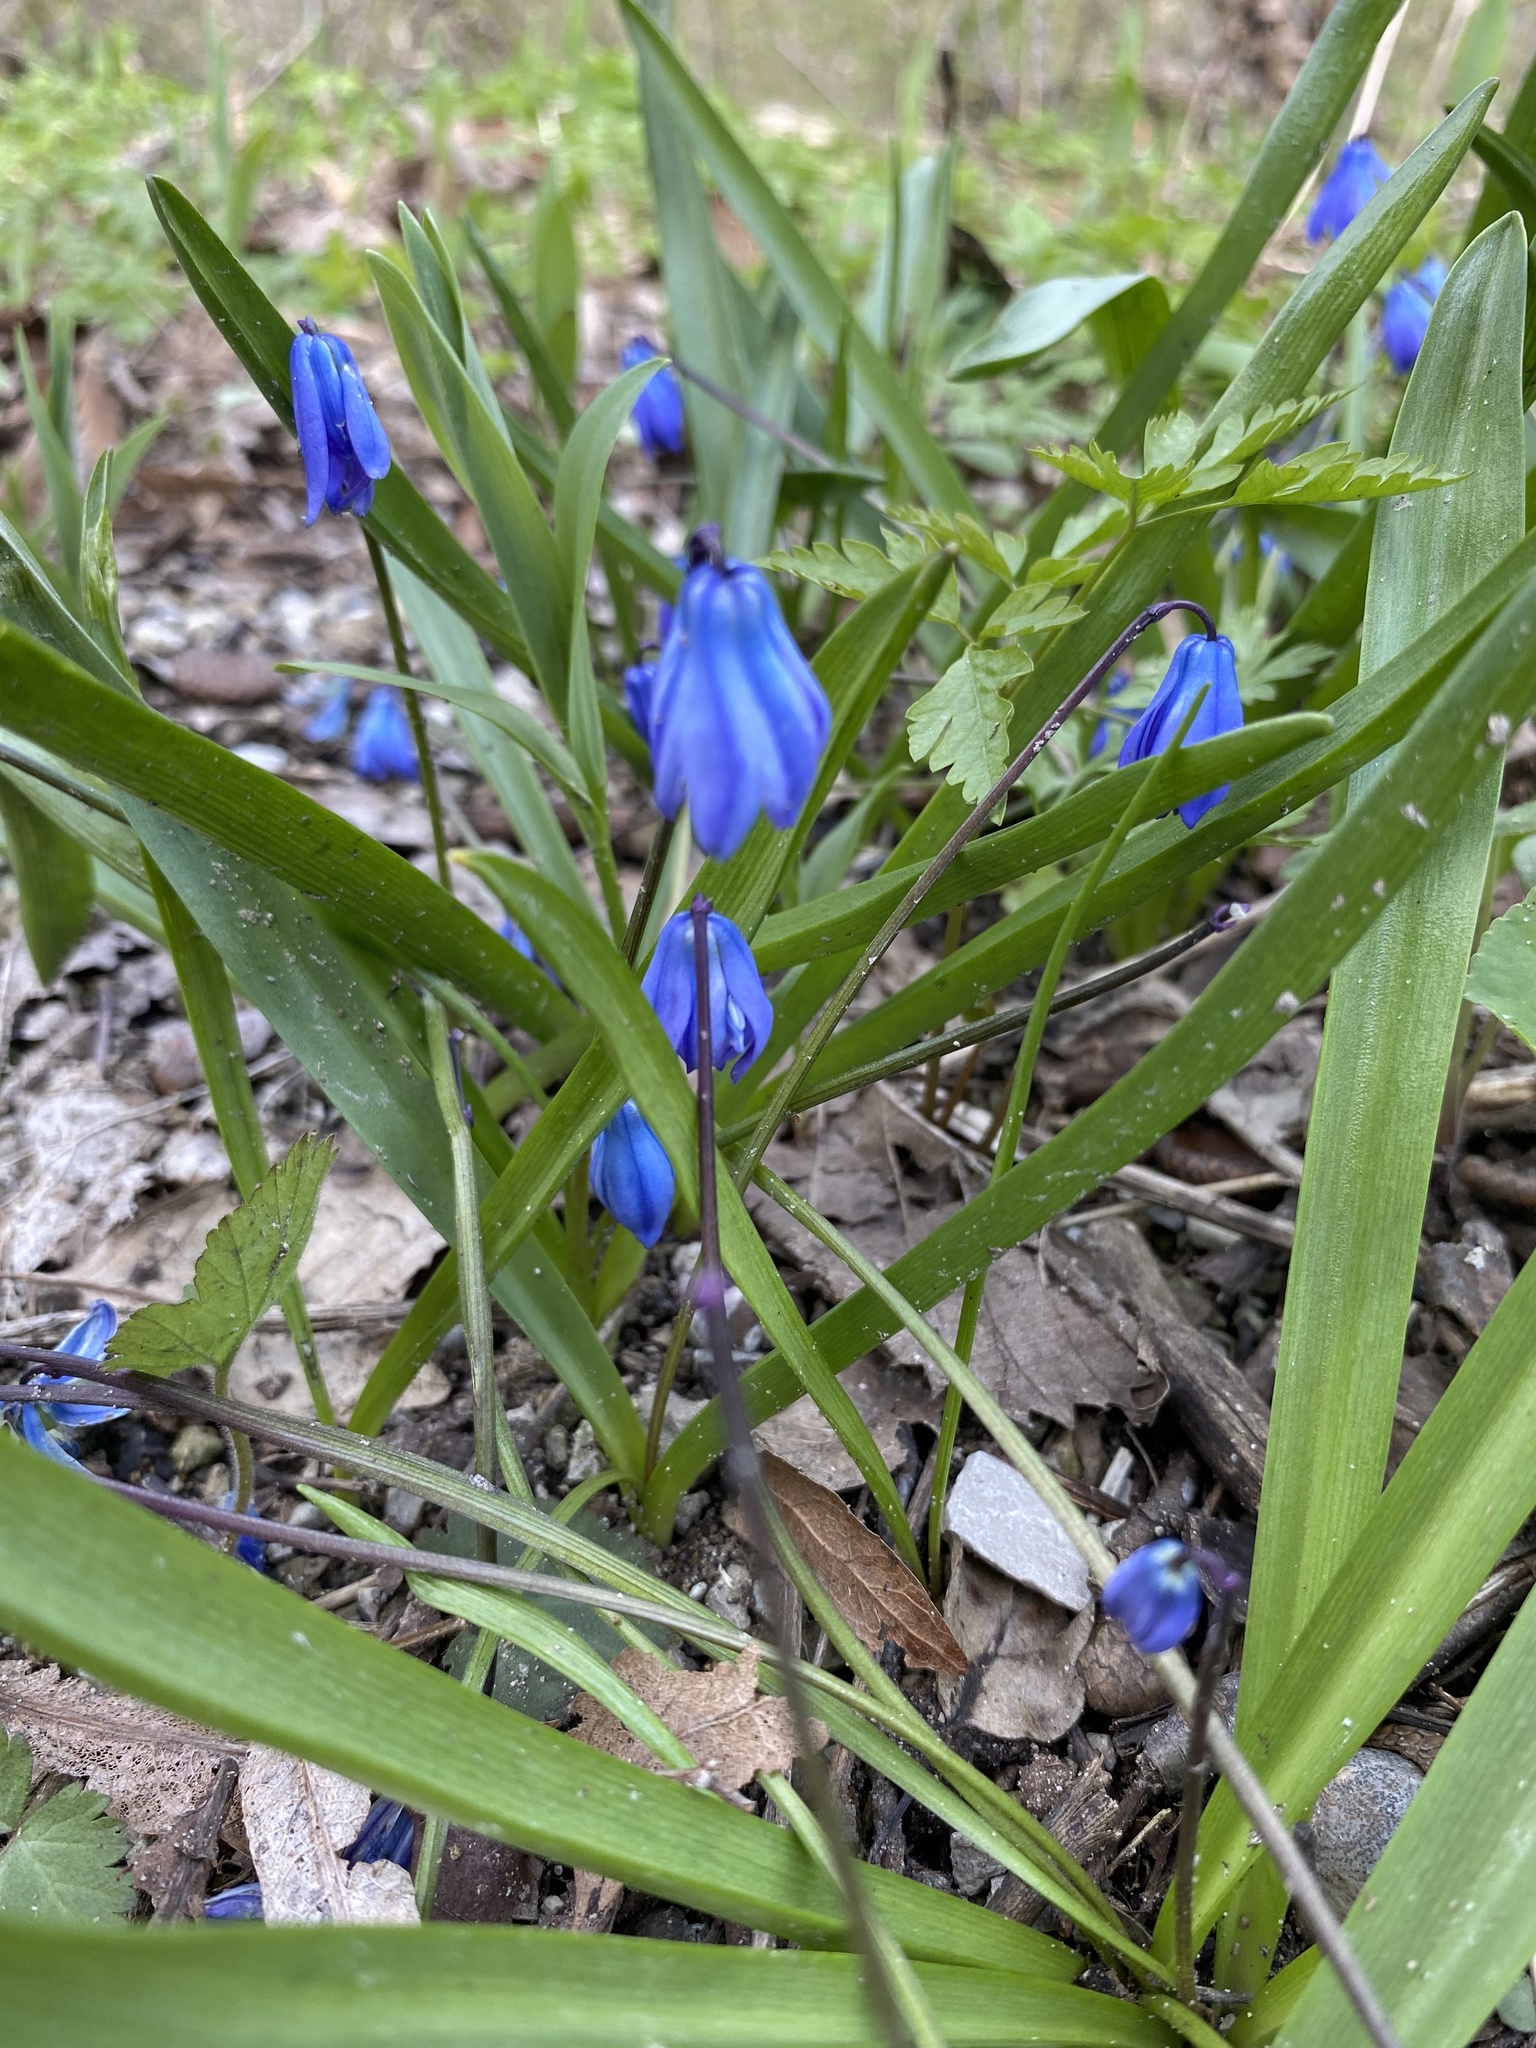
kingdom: Plantae
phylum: Tracheophyta
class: Liliopsida
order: Asparagales
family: Asparagaceae
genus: Scilla
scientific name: Scilla siberica
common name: Siberian squill
